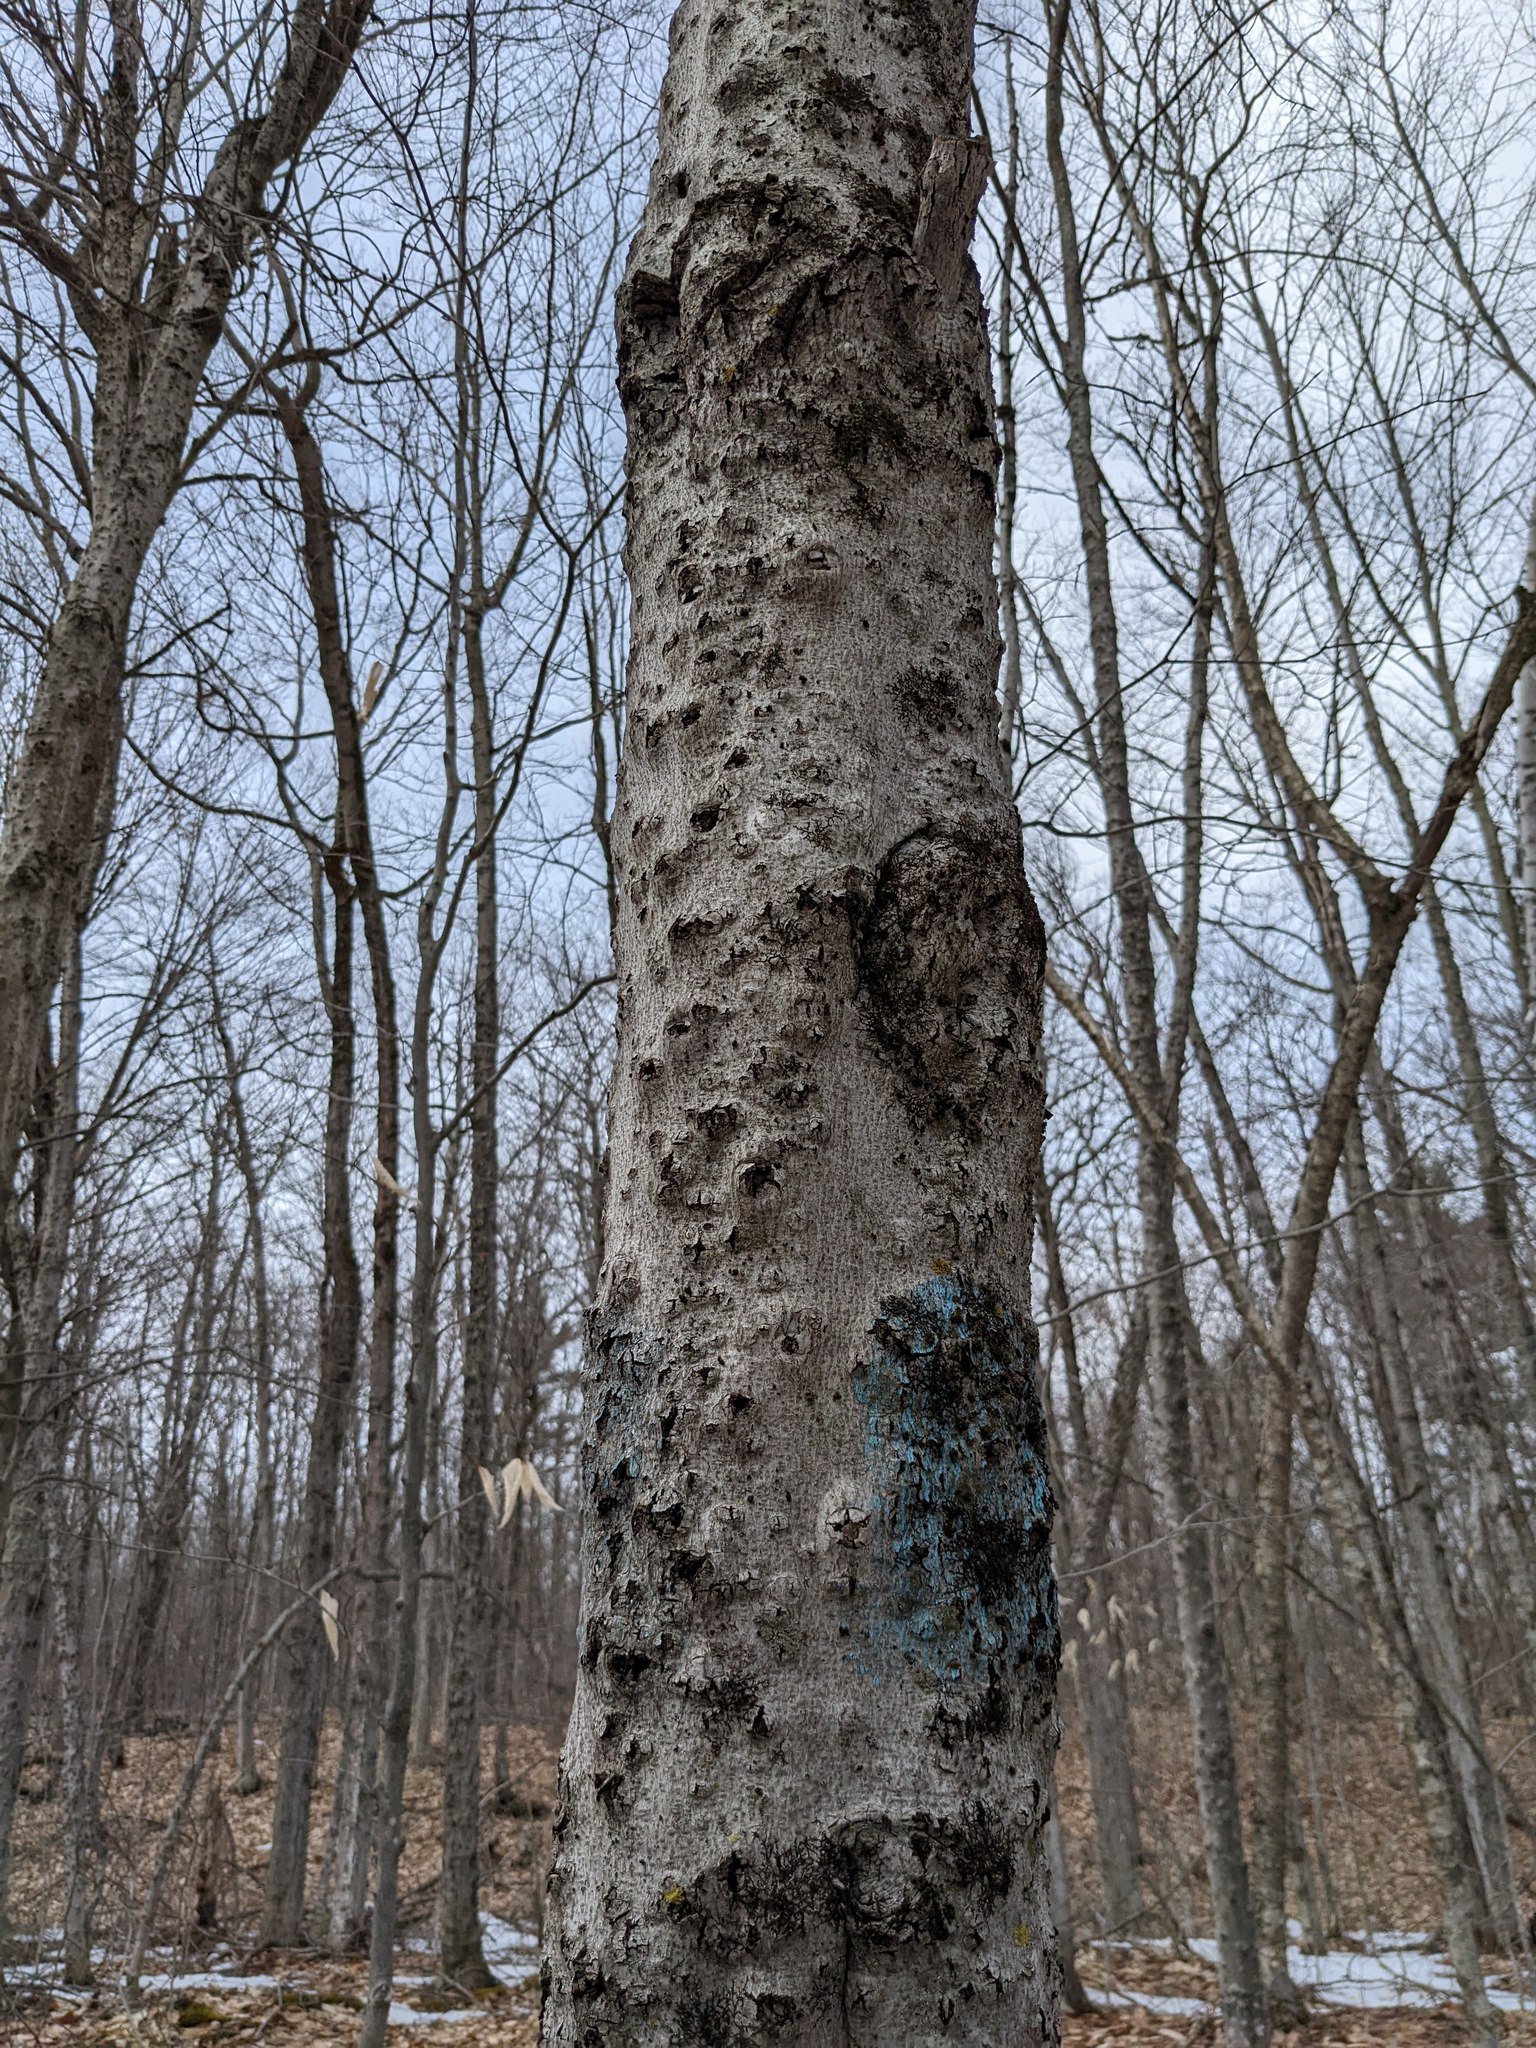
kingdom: Plantae
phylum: Tracheophyta
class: Magnoliopsida
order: Fagales
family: Fagaceae
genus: Fagus
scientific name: Fagus grandifolia
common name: American beech
